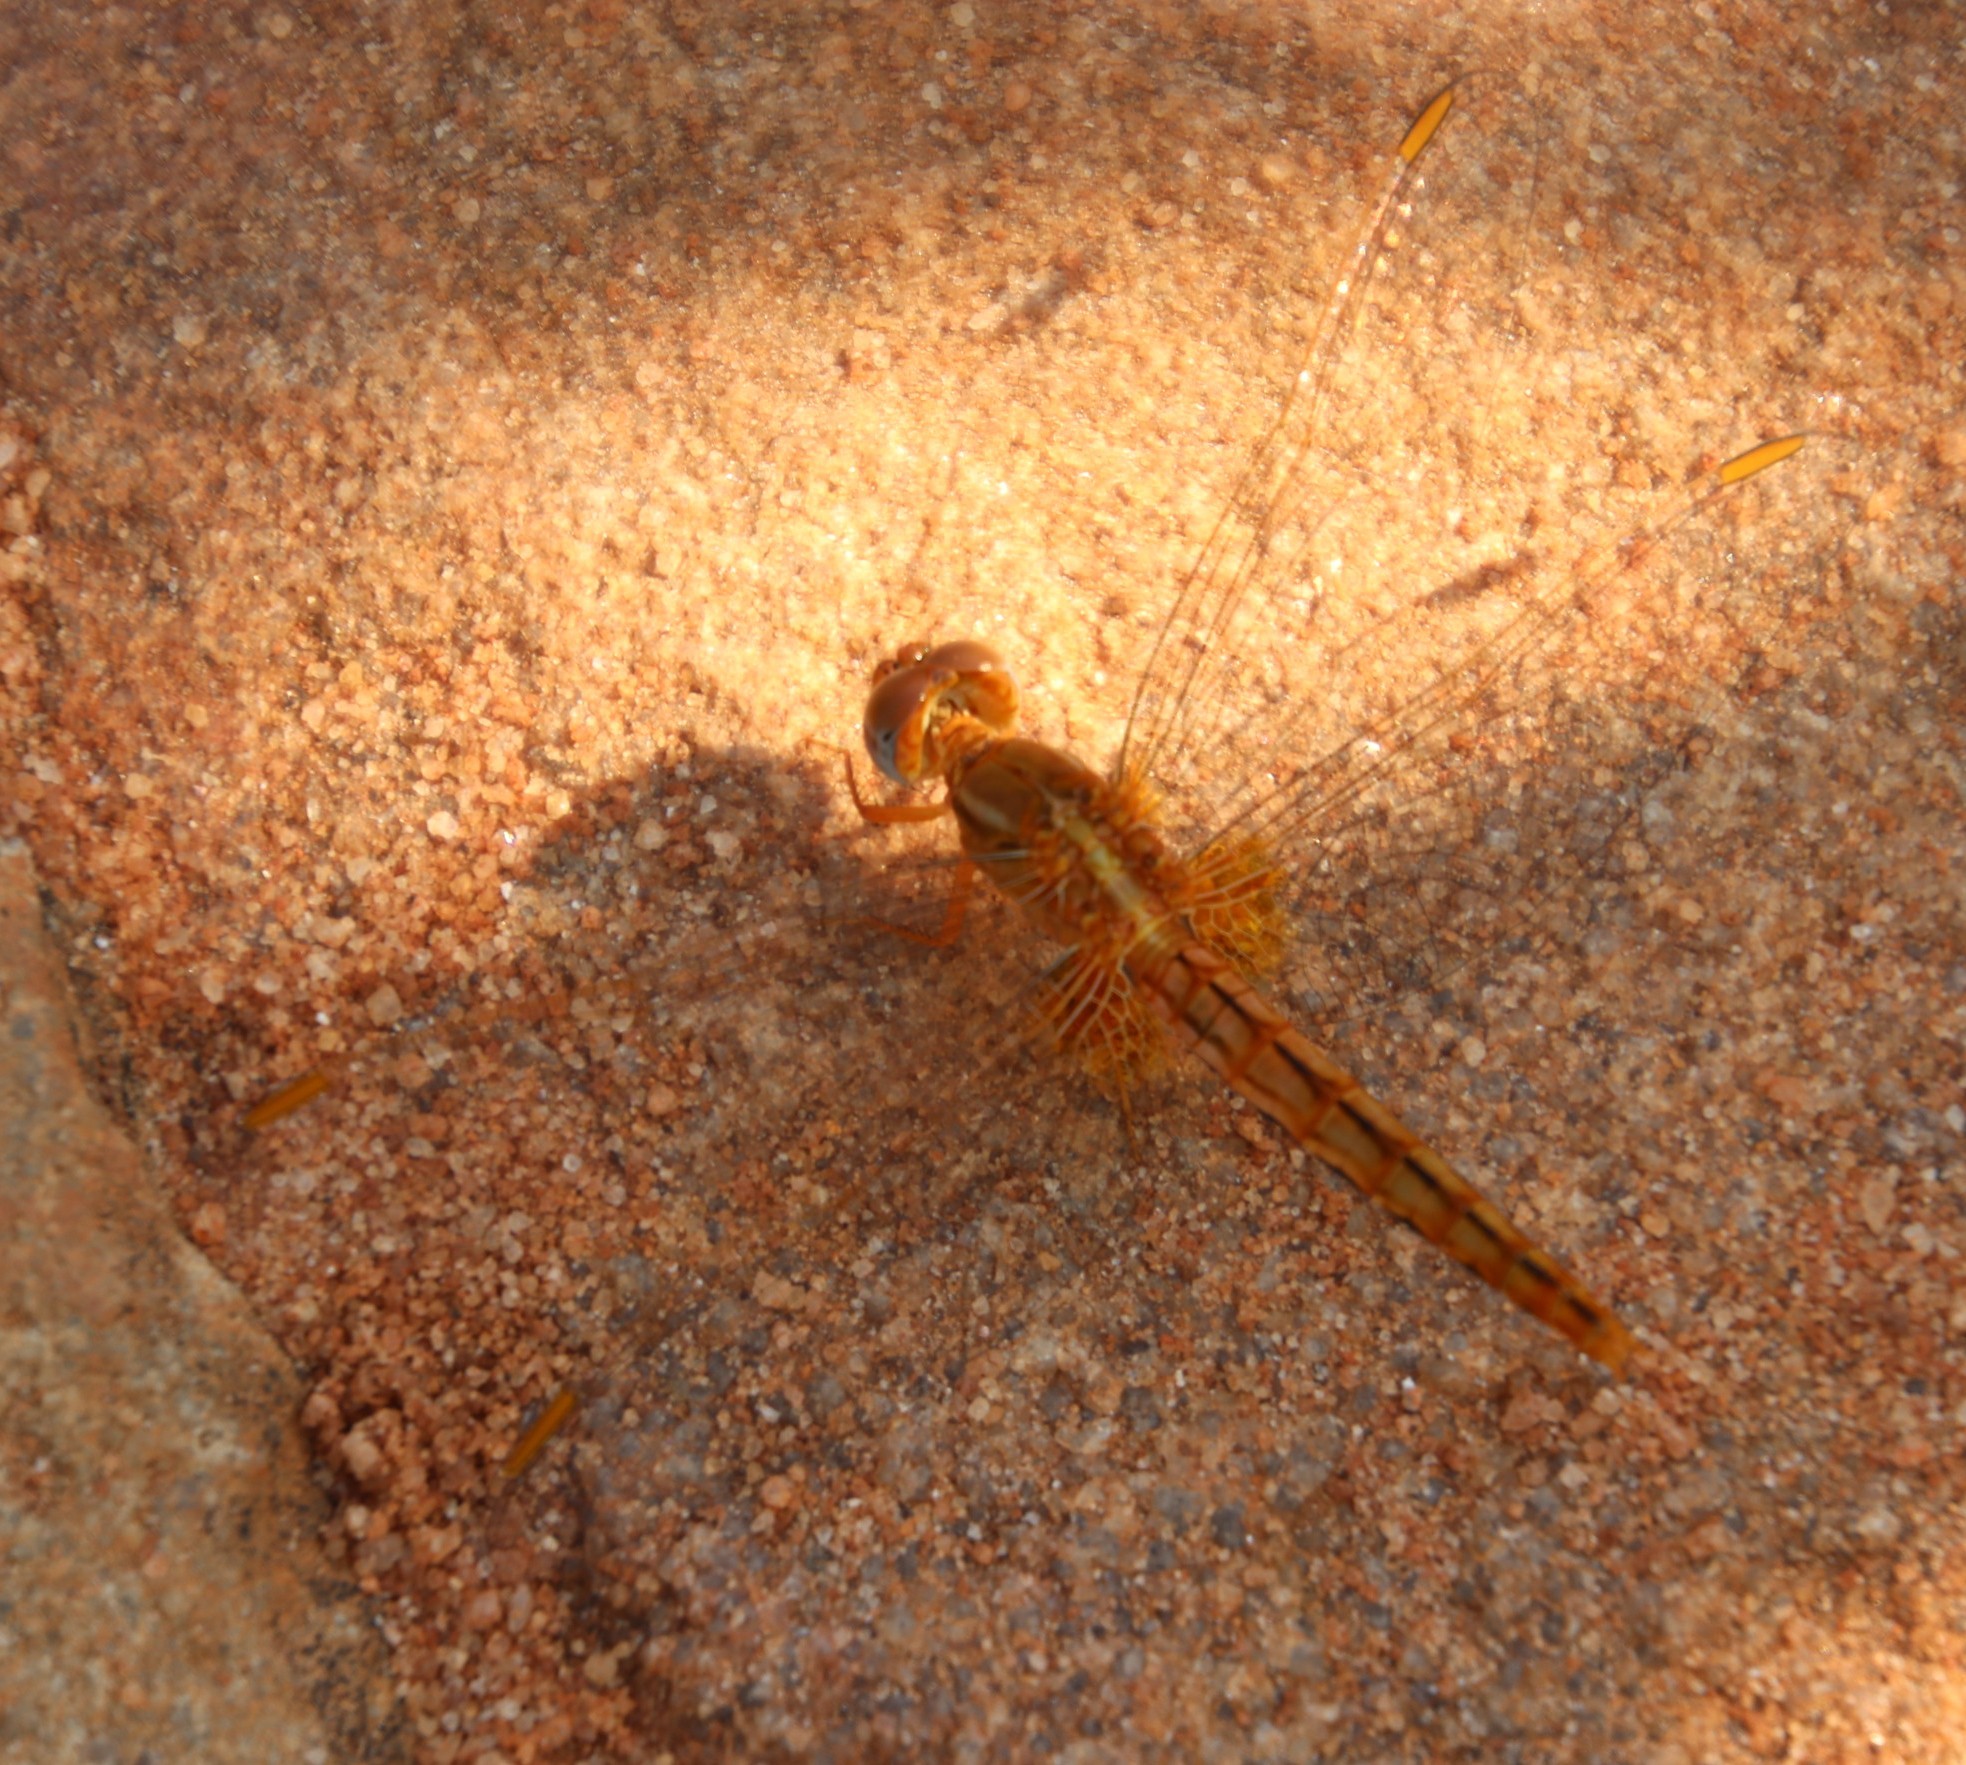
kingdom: Animalia
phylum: Arthropoda
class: Insecta
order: Odonata
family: Libellulidae
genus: Crocothemis
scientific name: Crocothemis sanguinolenta
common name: Little scarlet
